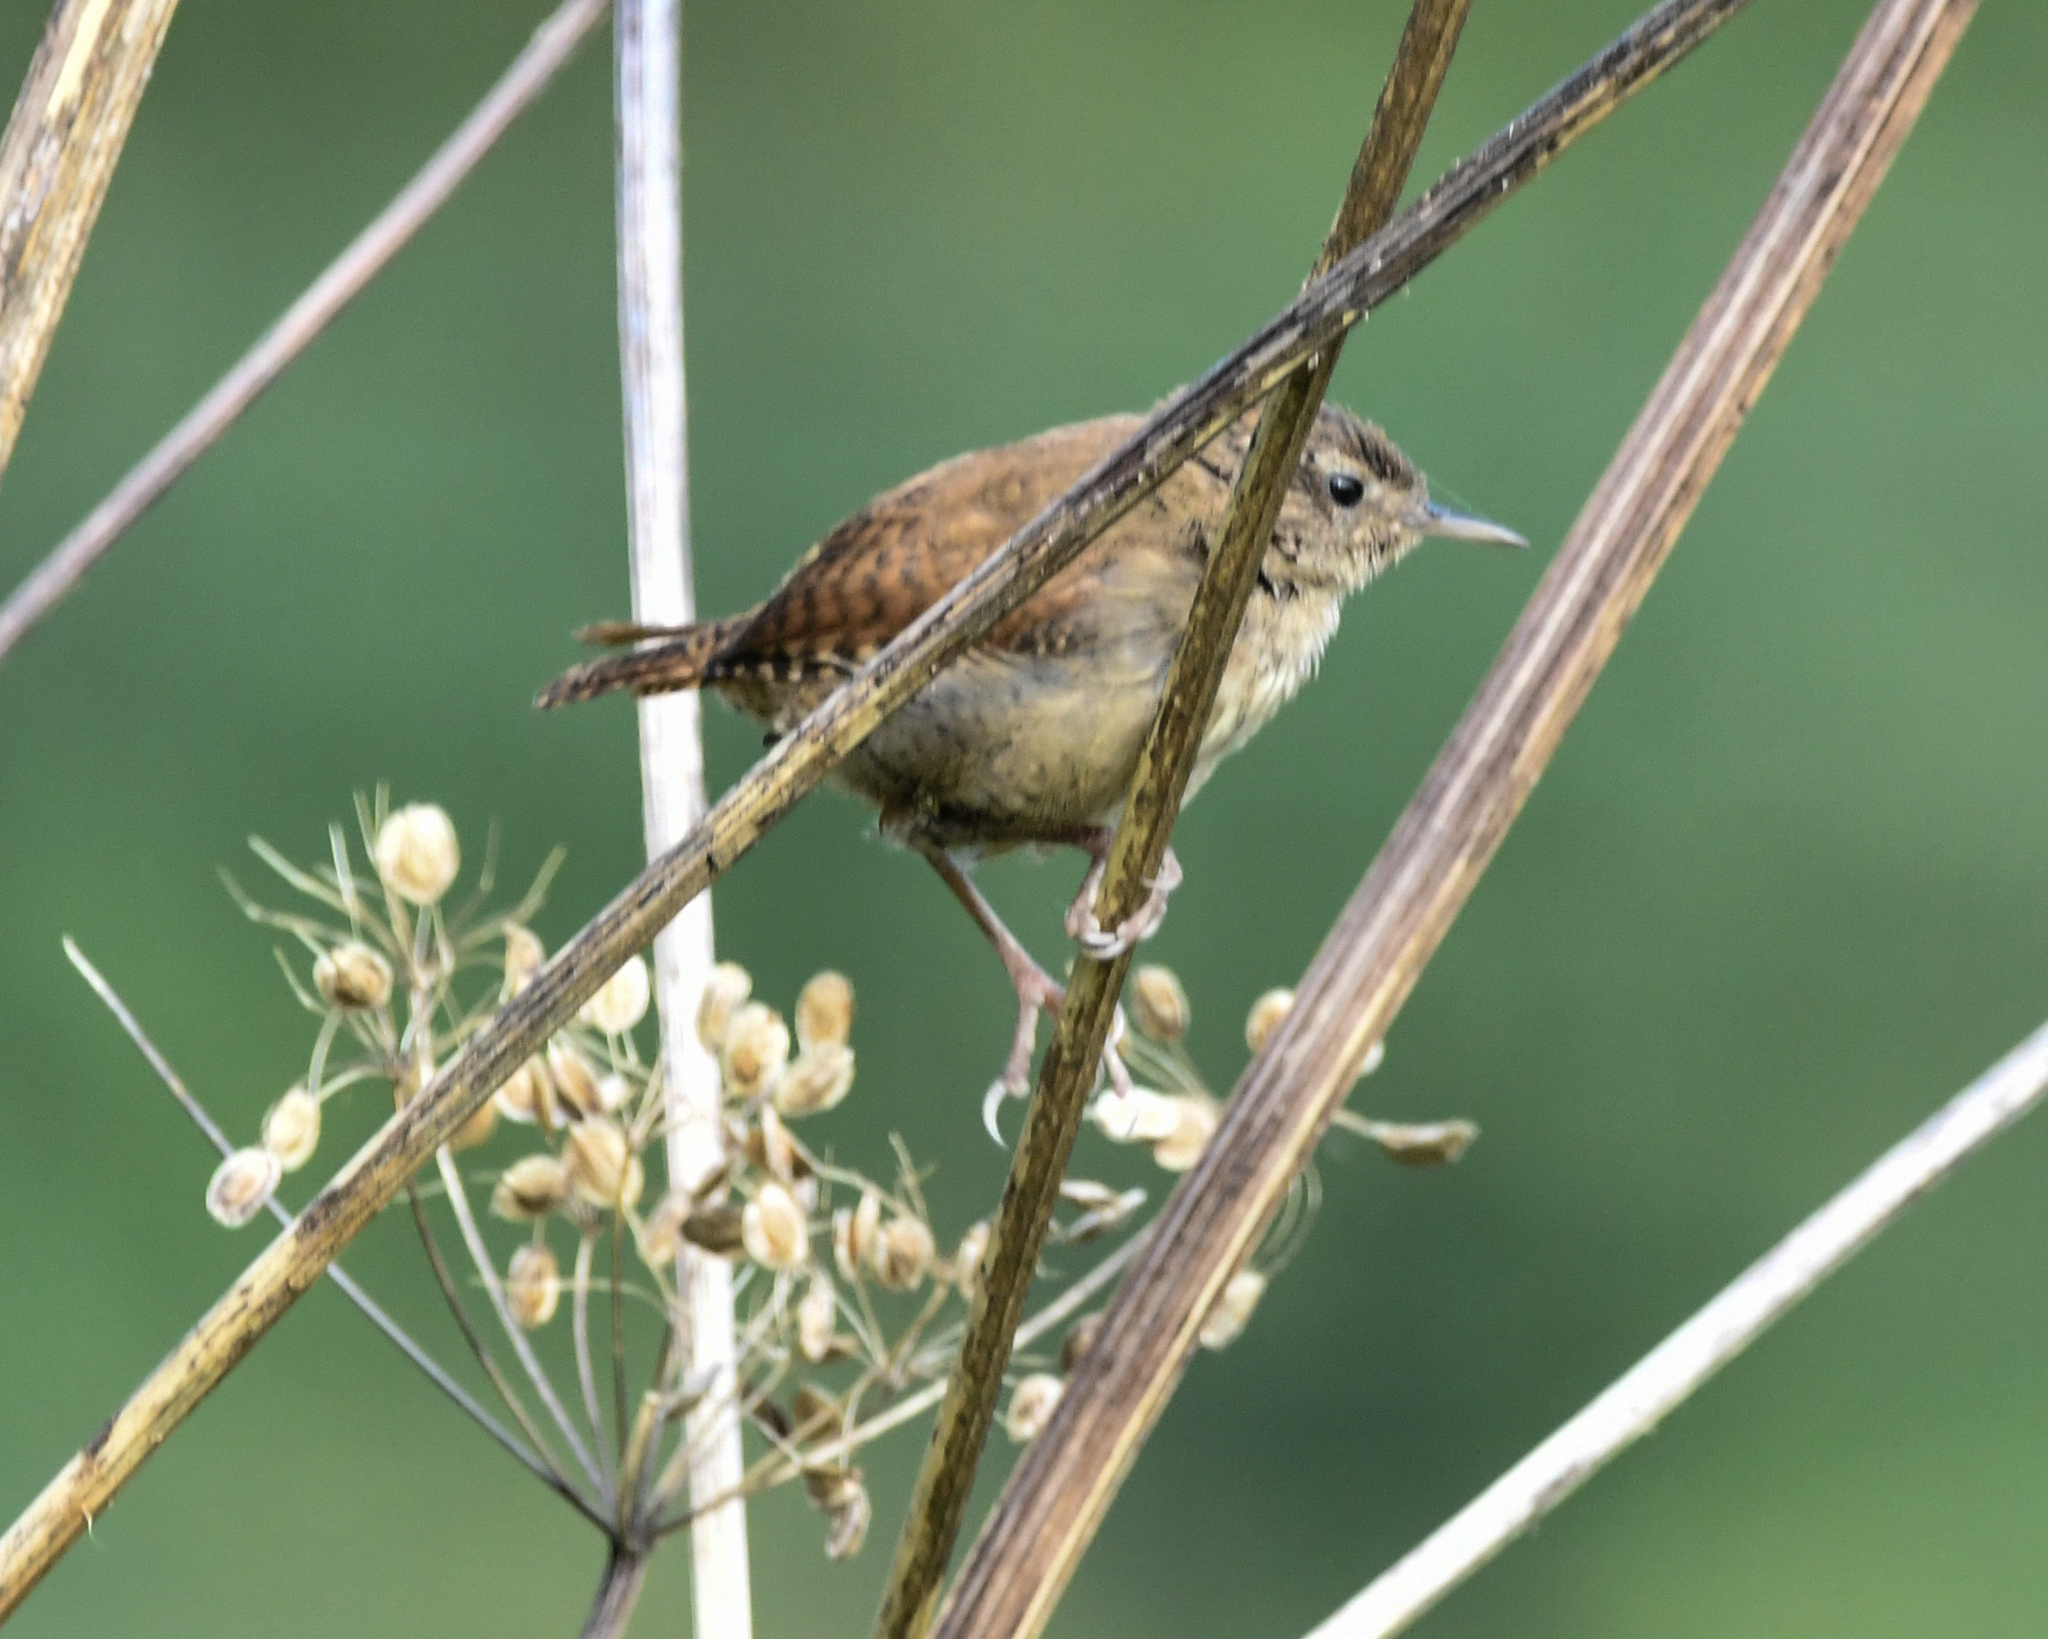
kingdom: Animalia
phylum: Chordata
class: Aves
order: Passeriformes
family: Troglodytidae
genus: Troglodytes
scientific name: Troglodytes troglodytes
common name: Eurasian wren
